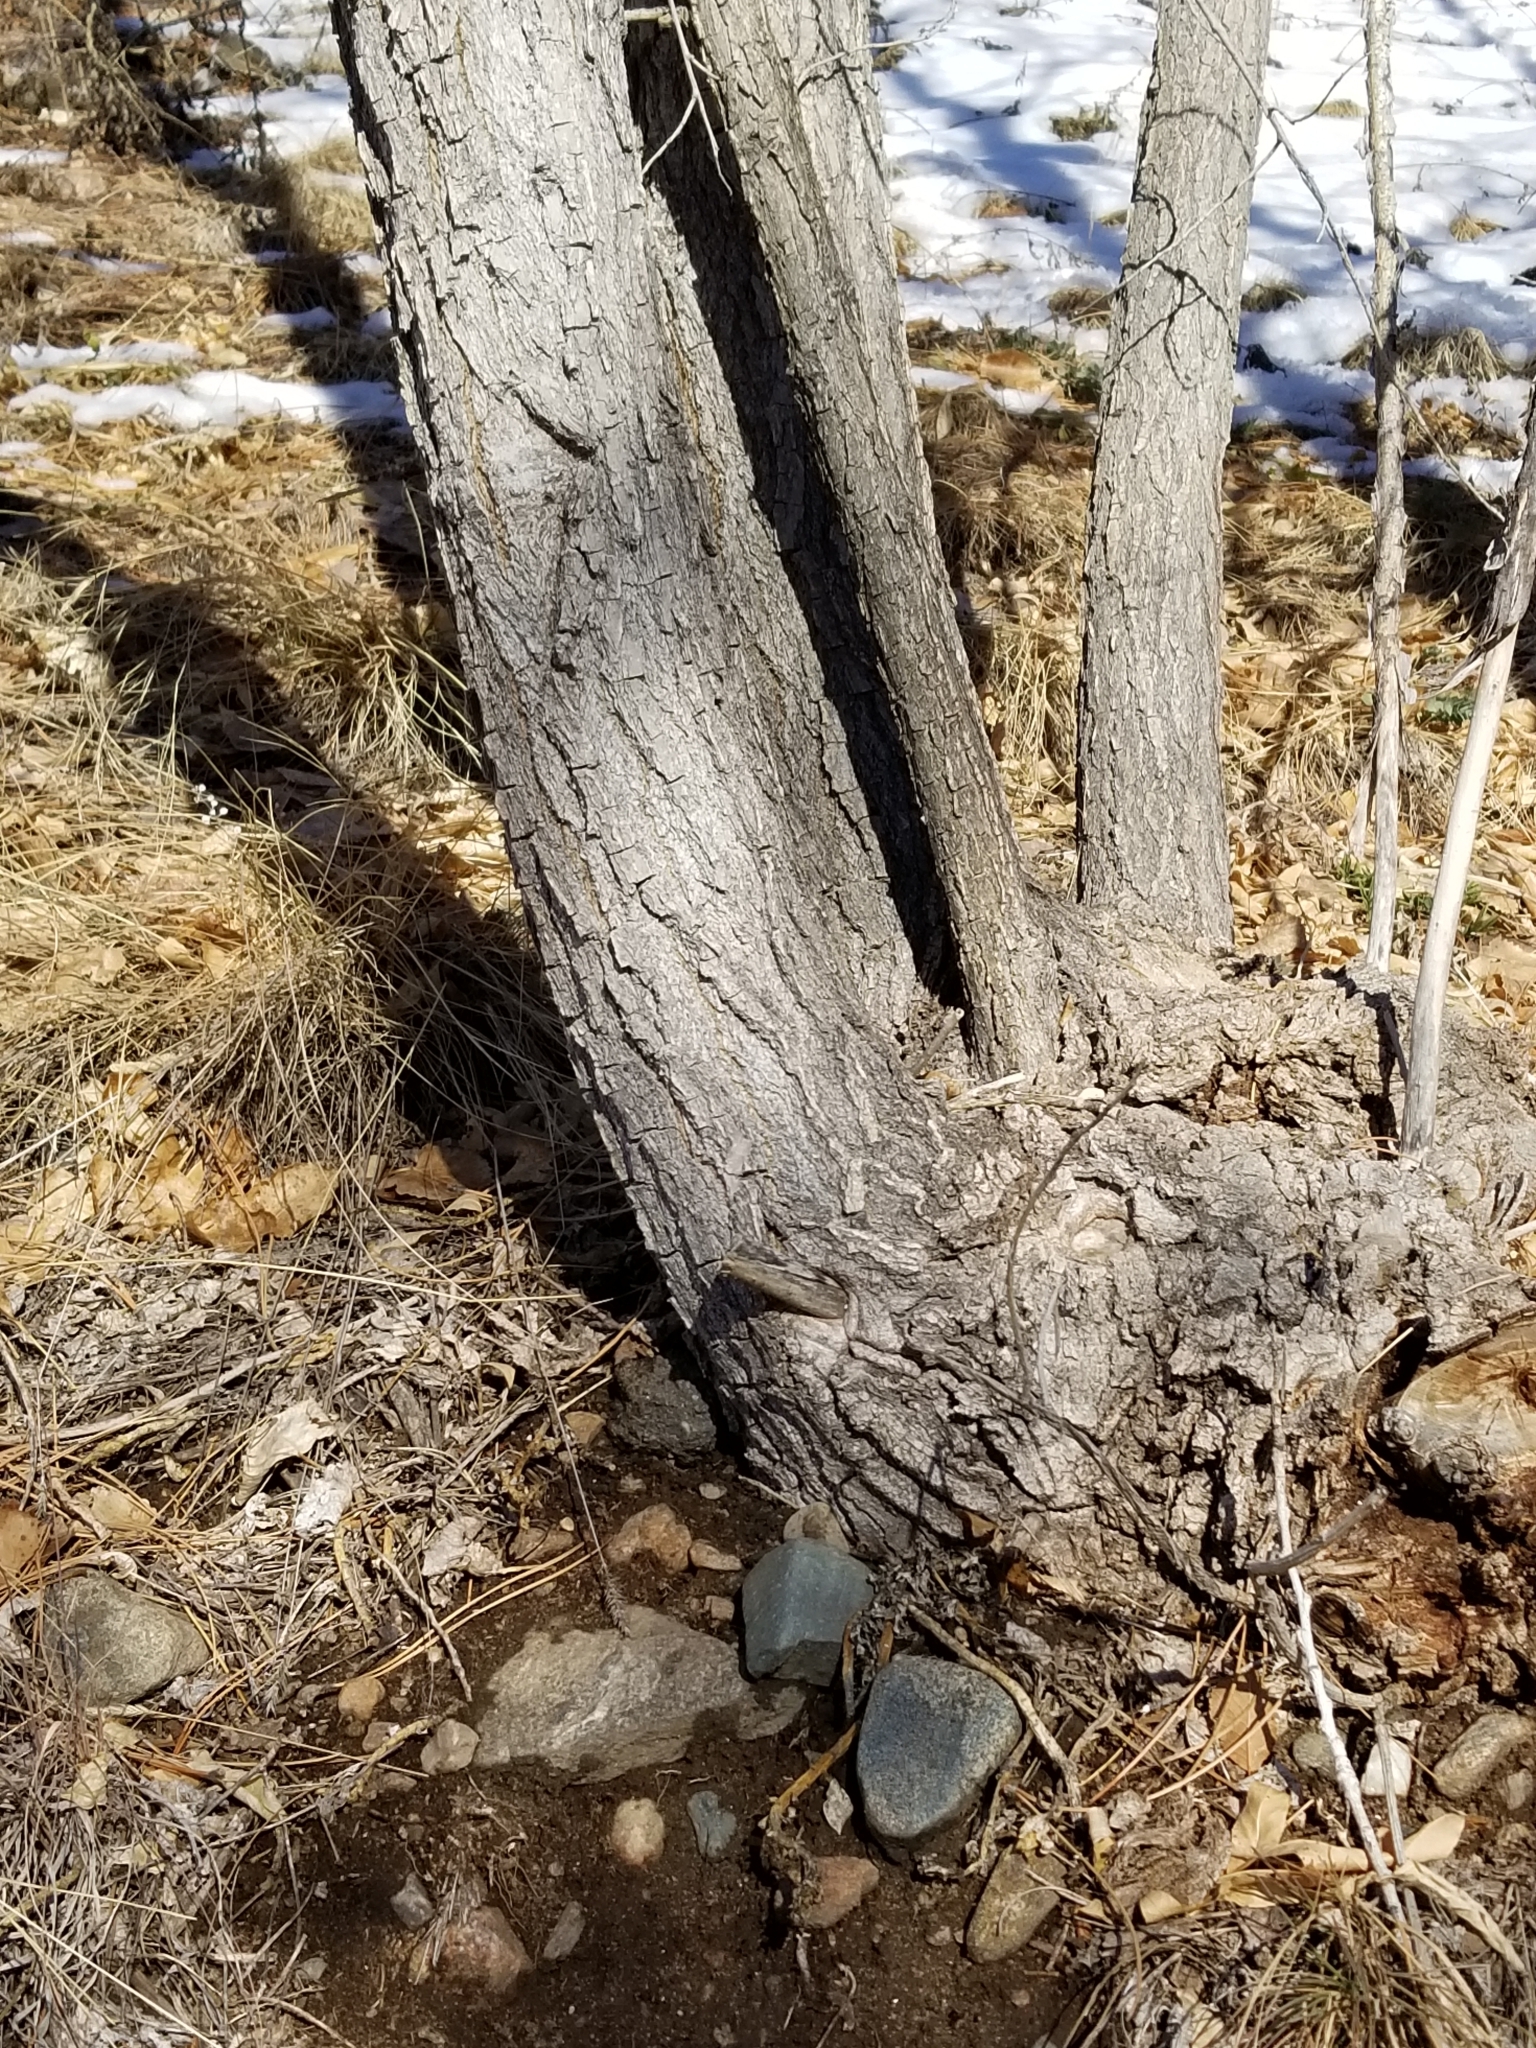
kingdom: Plantae
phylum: Tracheophyta
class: Magnoliopsida
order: Malpighiales
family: Salicaceae
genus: Populus
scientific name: Populus deltoides
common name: Eastern cottonwood
